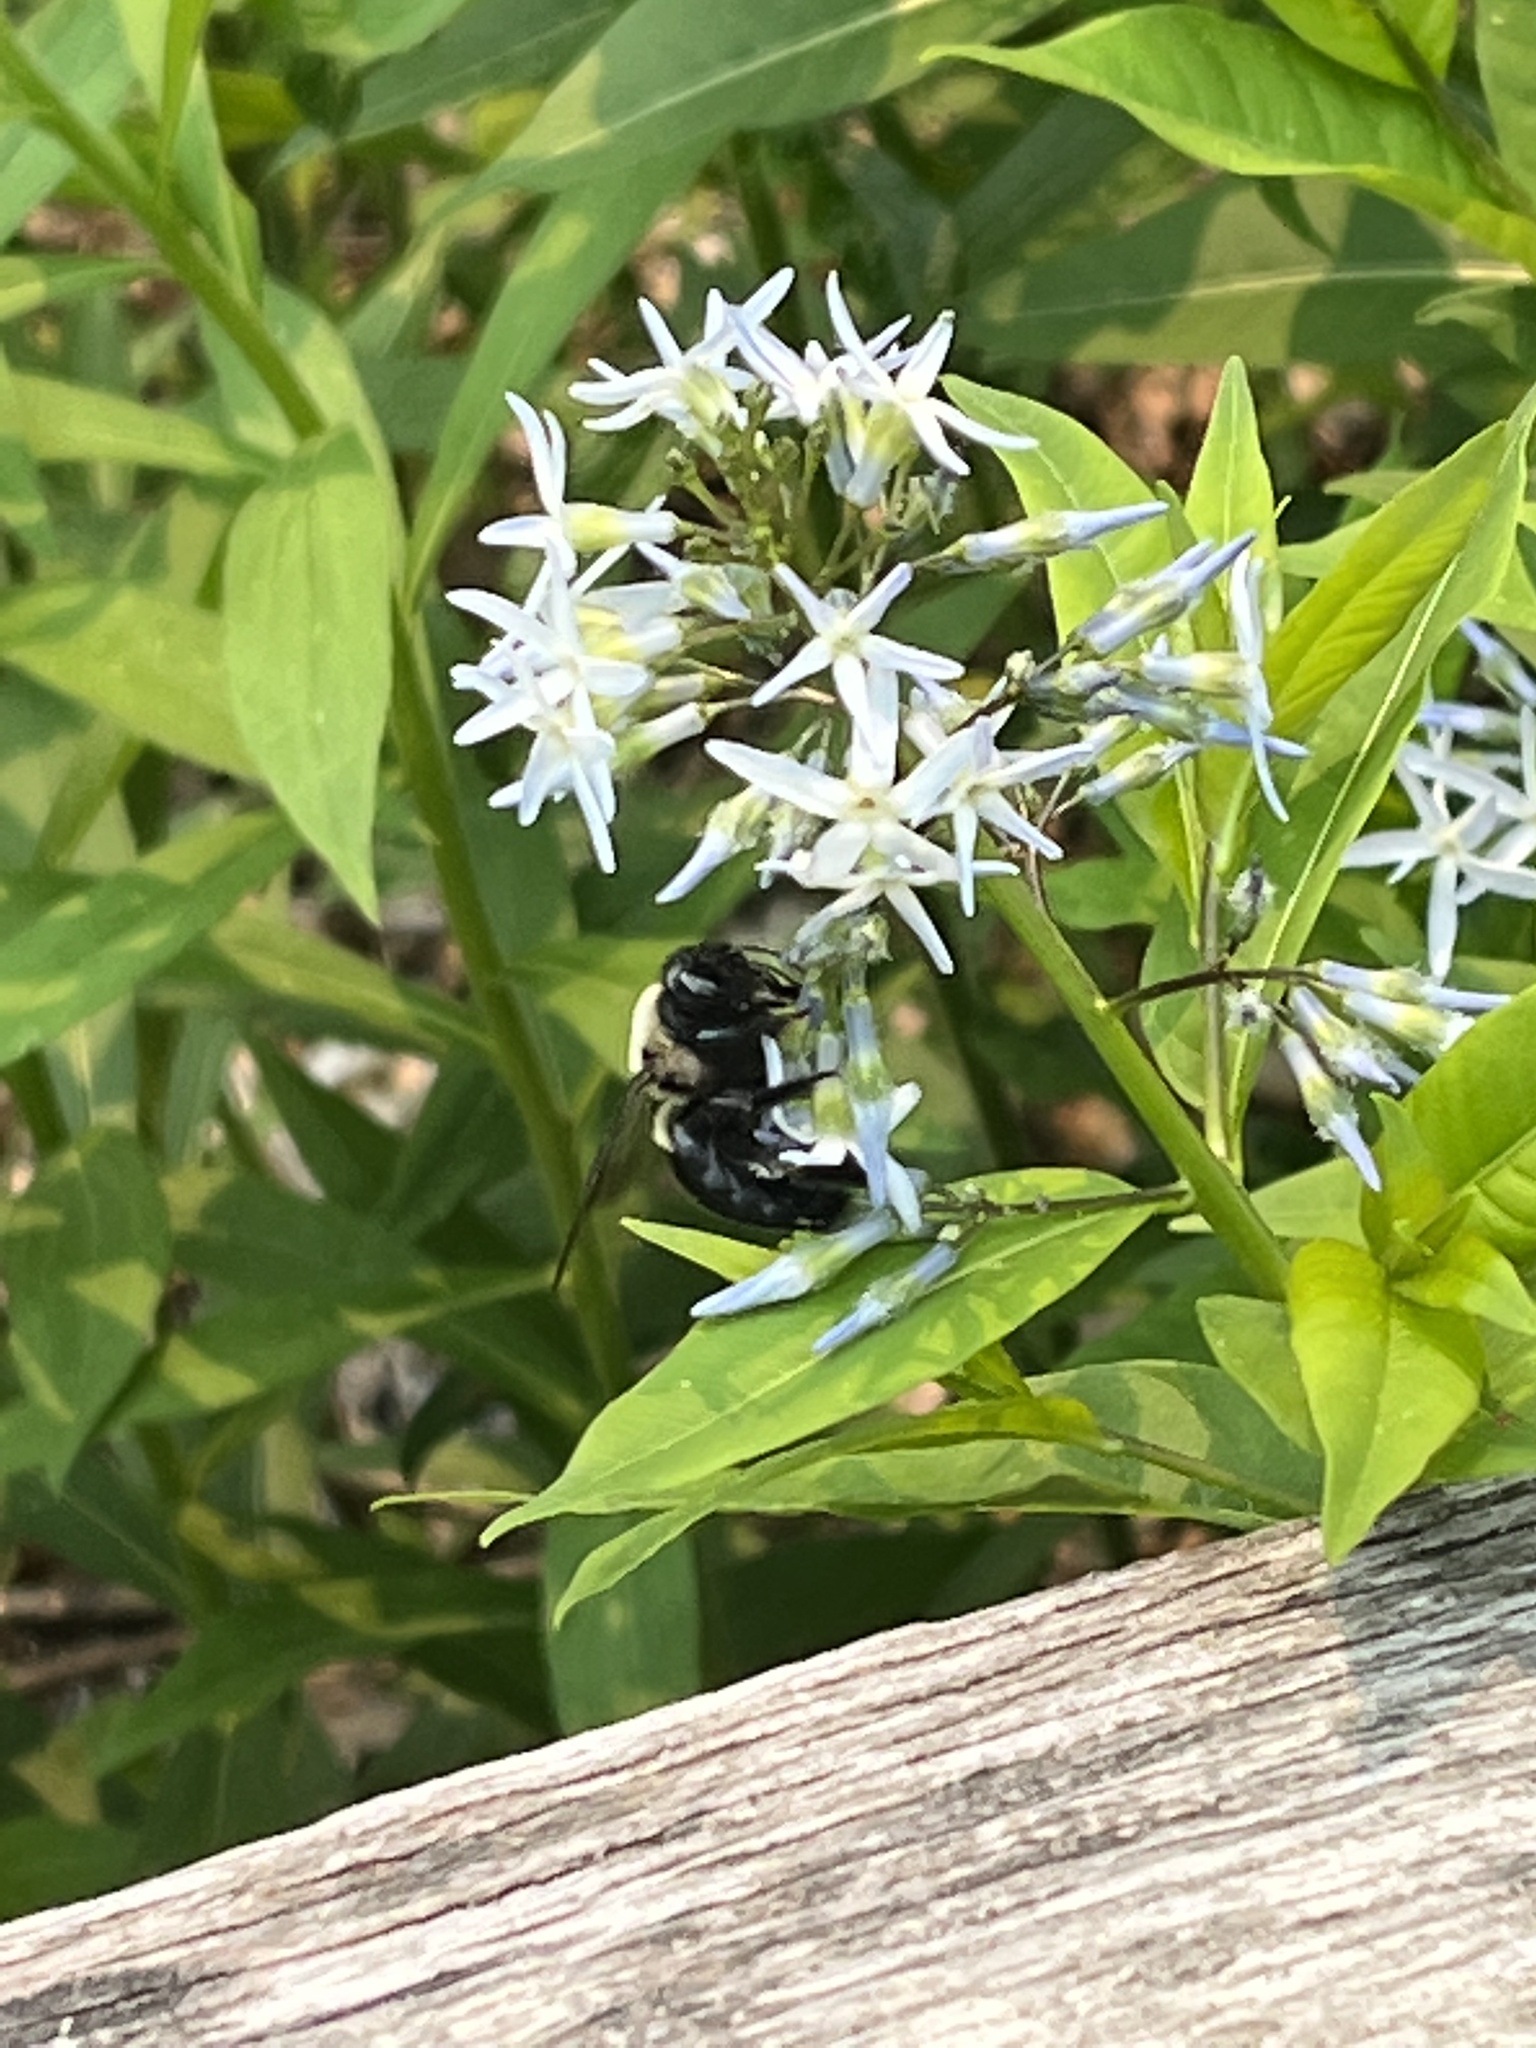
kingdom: Animalia
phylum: Arthropoda
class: Insecta
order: Hymenoptera
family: Apidae
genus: Xylocopa
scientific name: Xylocopa virginica
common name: Carpenter bee
